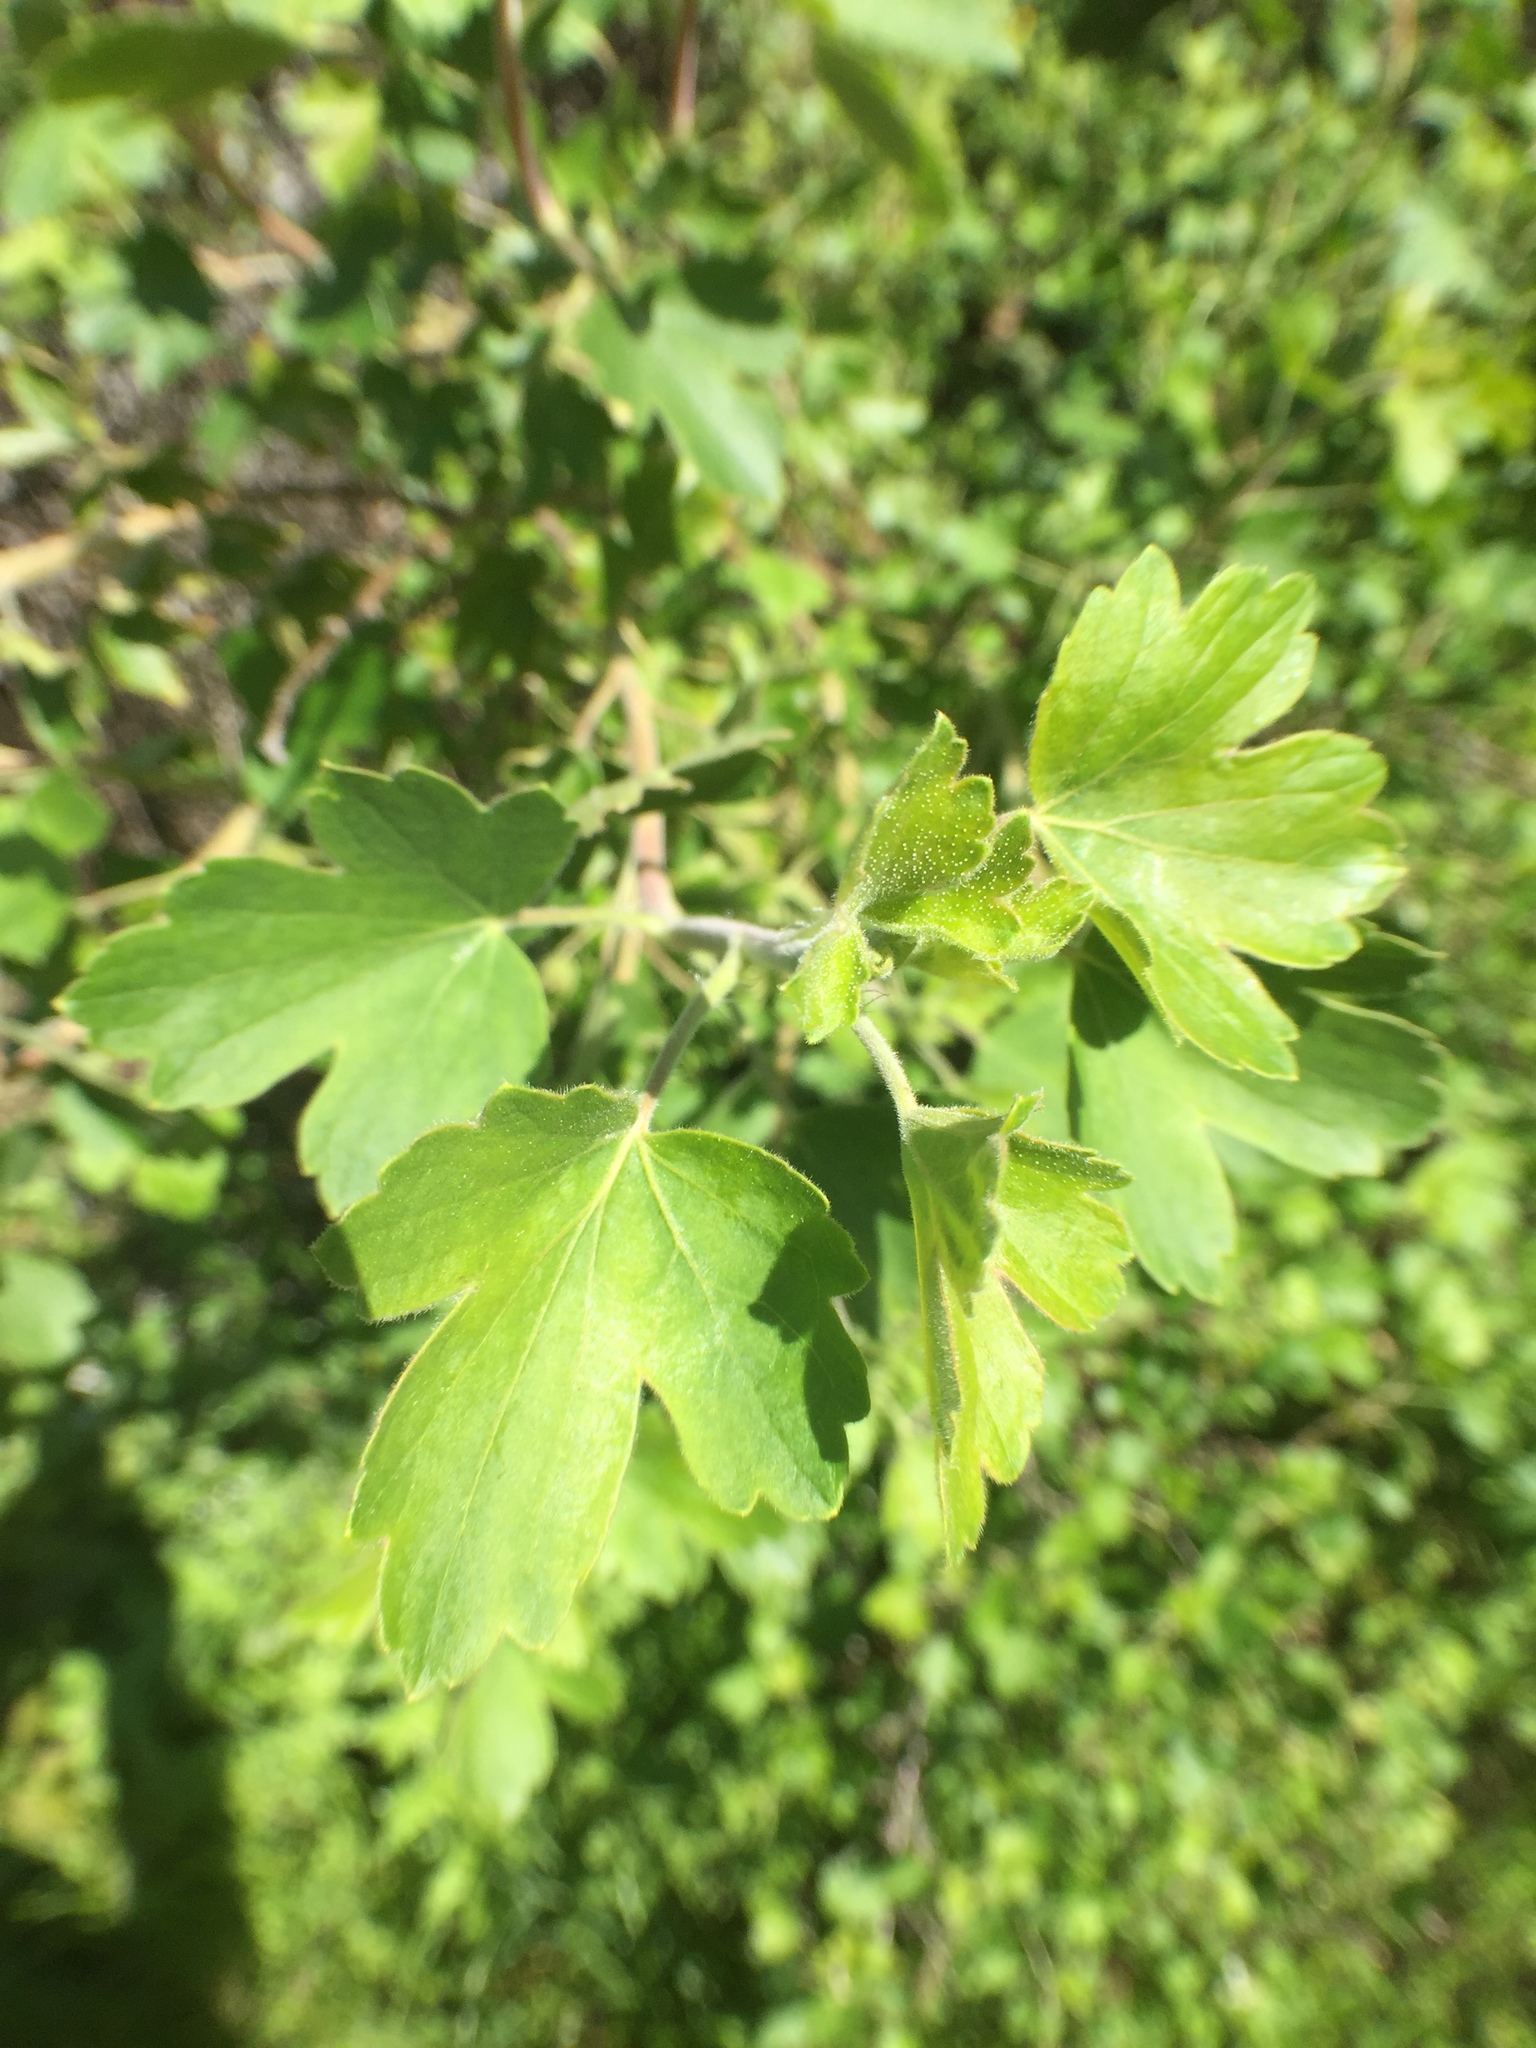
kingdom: Plantae
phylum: Tracheophyta
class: Magnoliopsida
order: Saxifragales
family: Grossulariaceae
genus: Ribes
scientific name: Ribes aureum
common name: Golden currant
